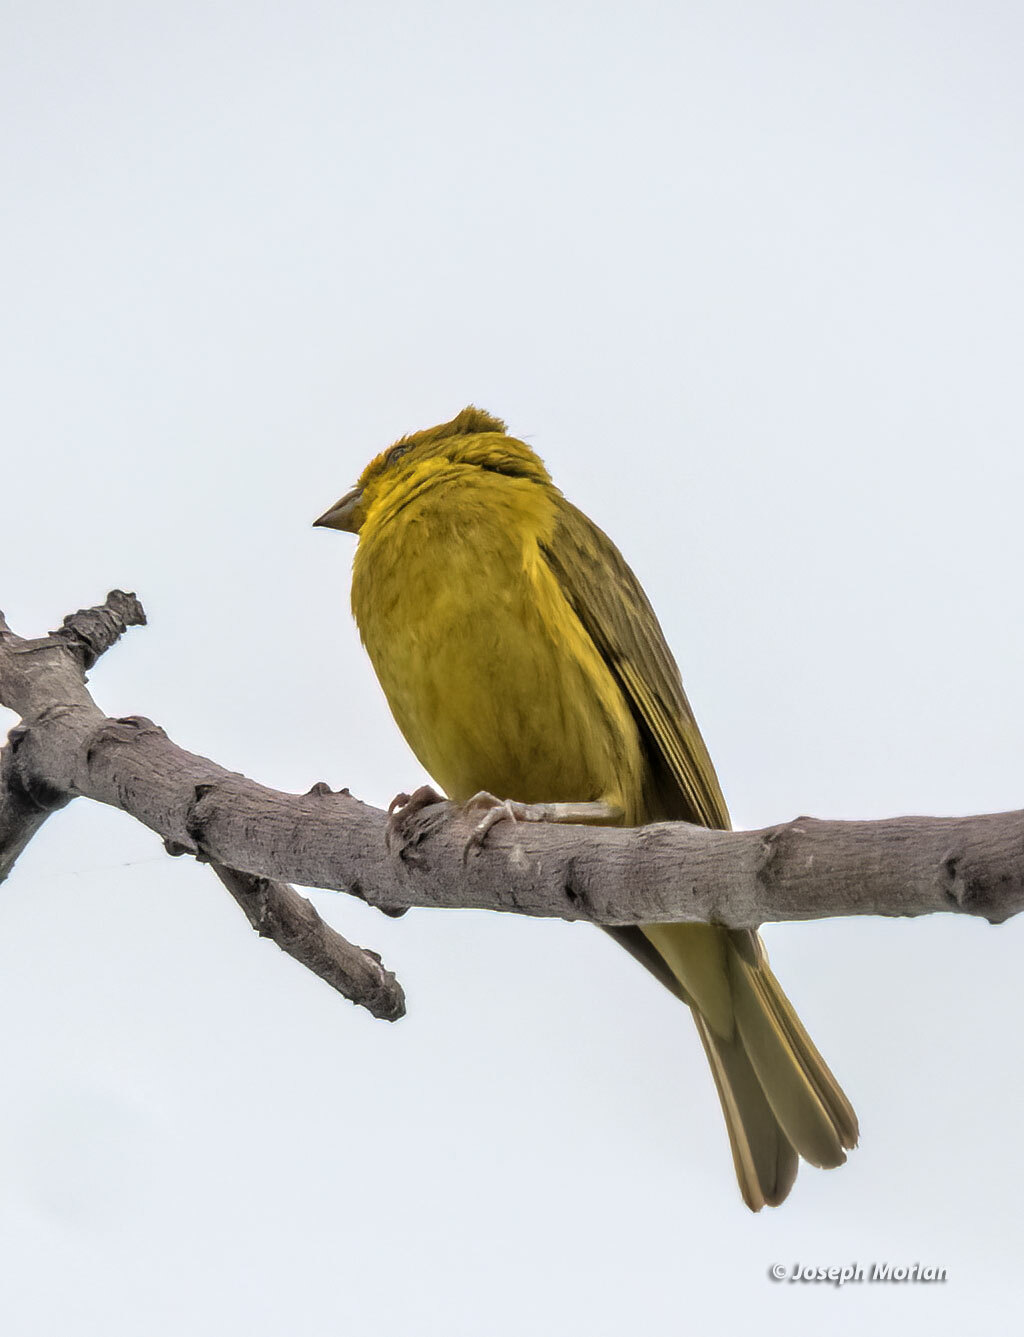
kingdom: Animalia
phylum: Chordata
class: Aves
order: Passeriformes
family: Thraupidae
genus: Sicalis
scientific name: Sicalis flaveola
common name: Saffron finch
